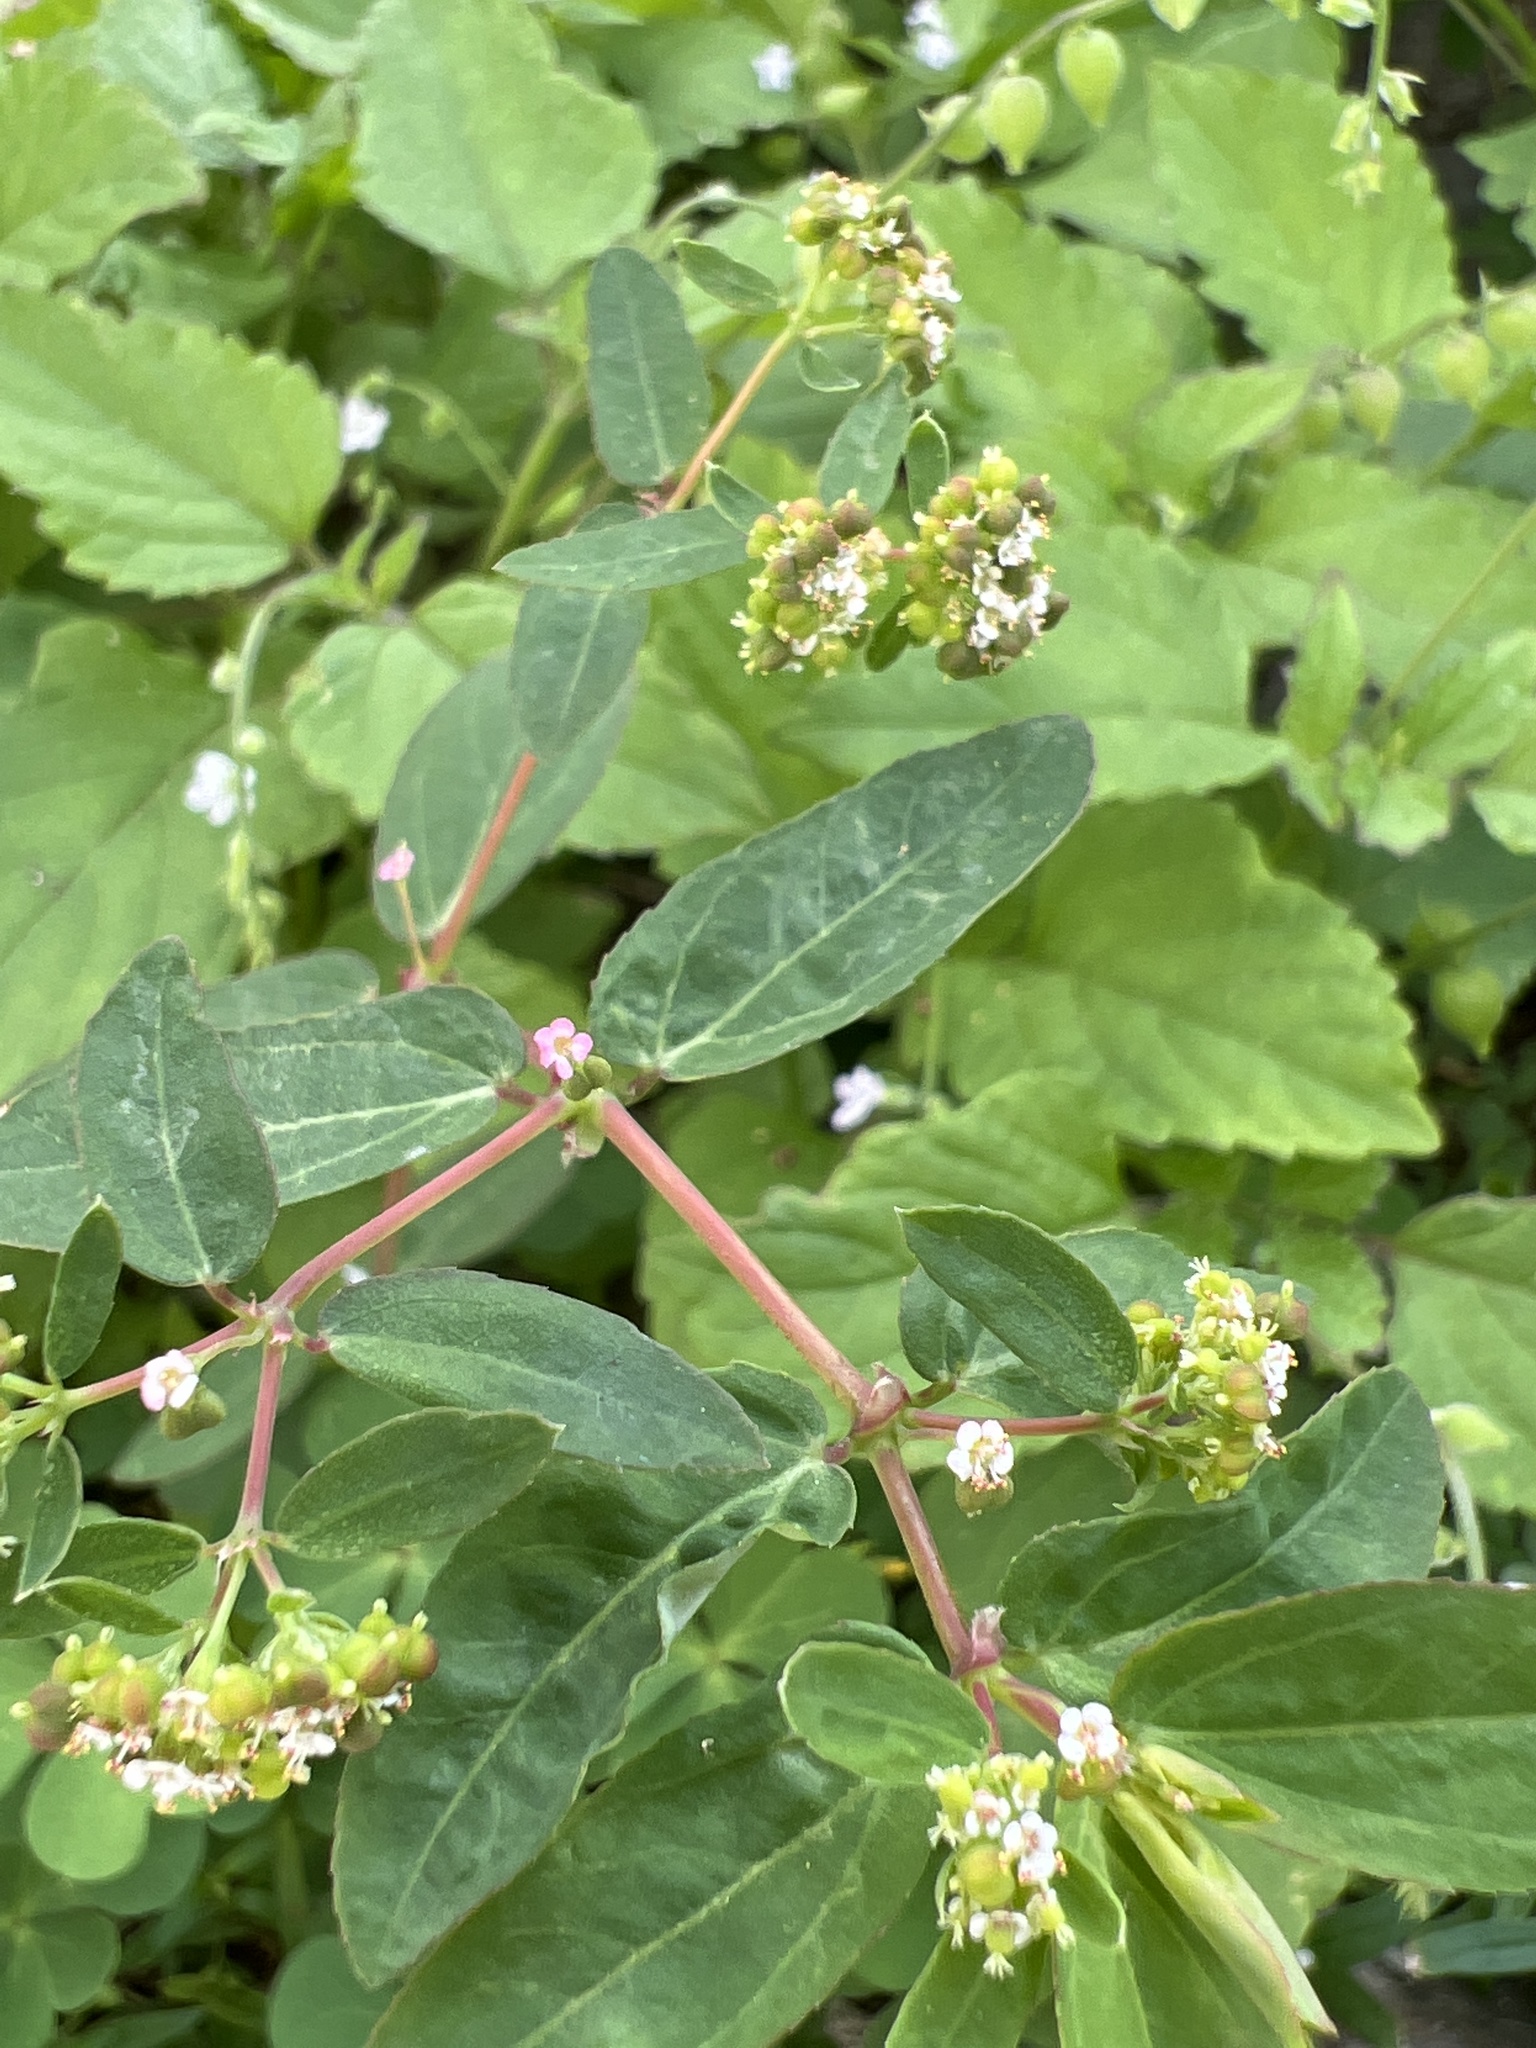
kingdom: Plantae
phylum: Tracheophyta
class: Magnoliopsida
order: Malpighiales
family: Euphorbiaceae
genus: Euphorbia
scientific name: Euphorbia hypericifolia
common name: Graceful sandmat
